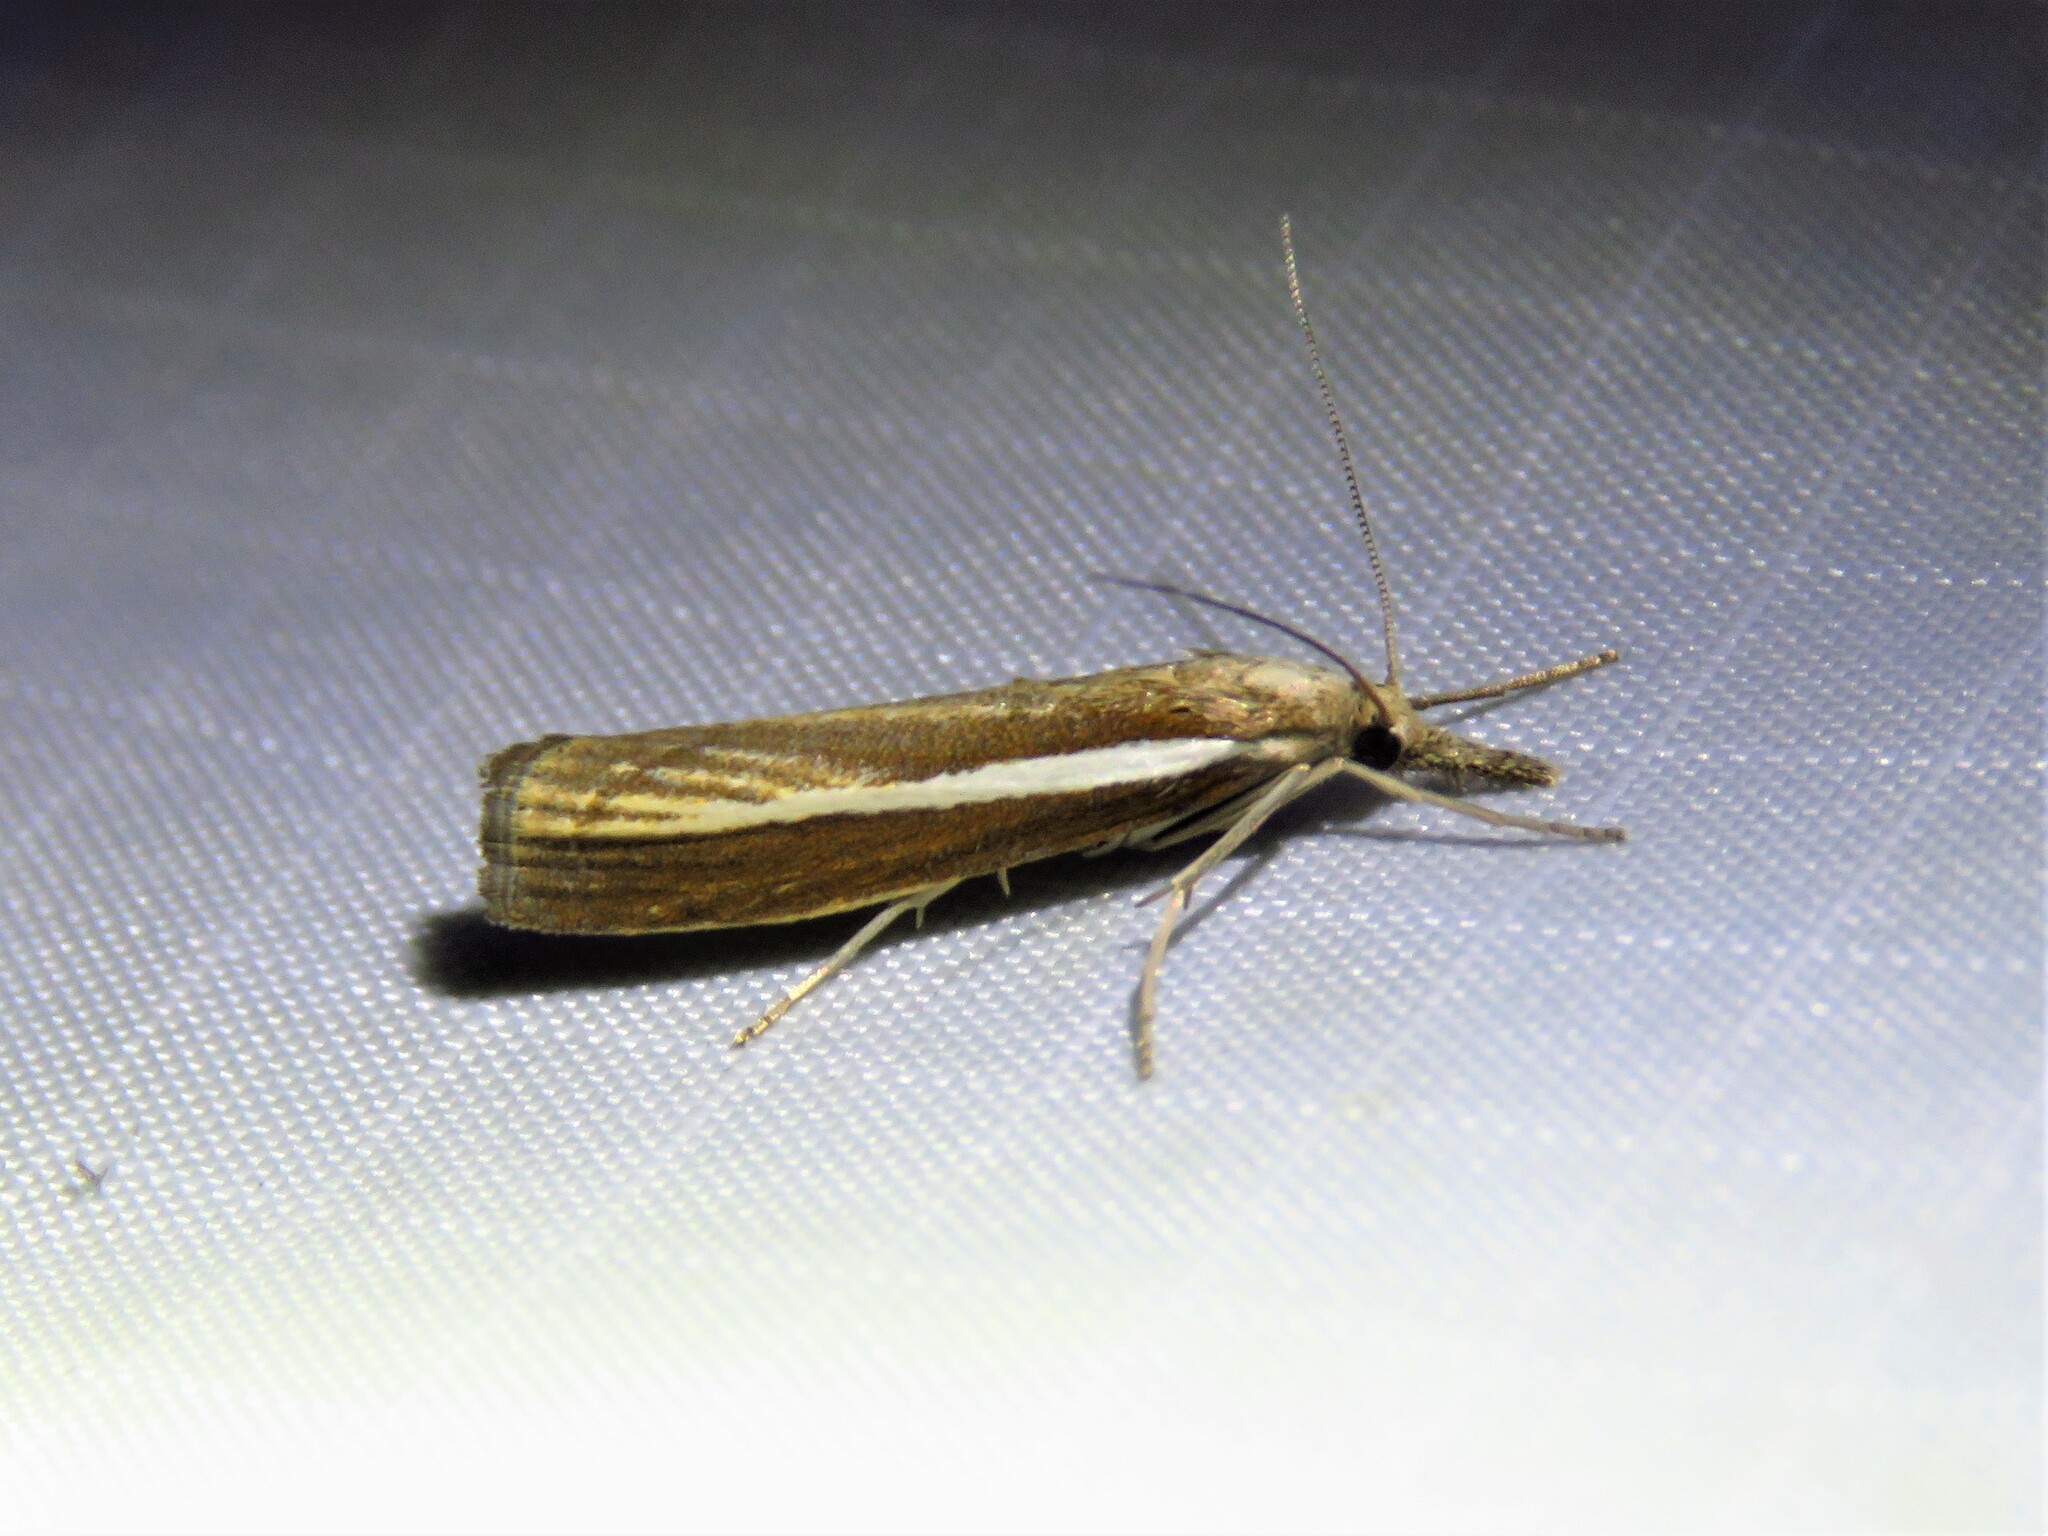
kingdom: Animalia
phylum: Arthropoda
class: Insecta
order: Lepidoptera
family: Crambidae
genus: Agriphila
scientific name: Agriphila tristellus
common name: Common grass-veneer
